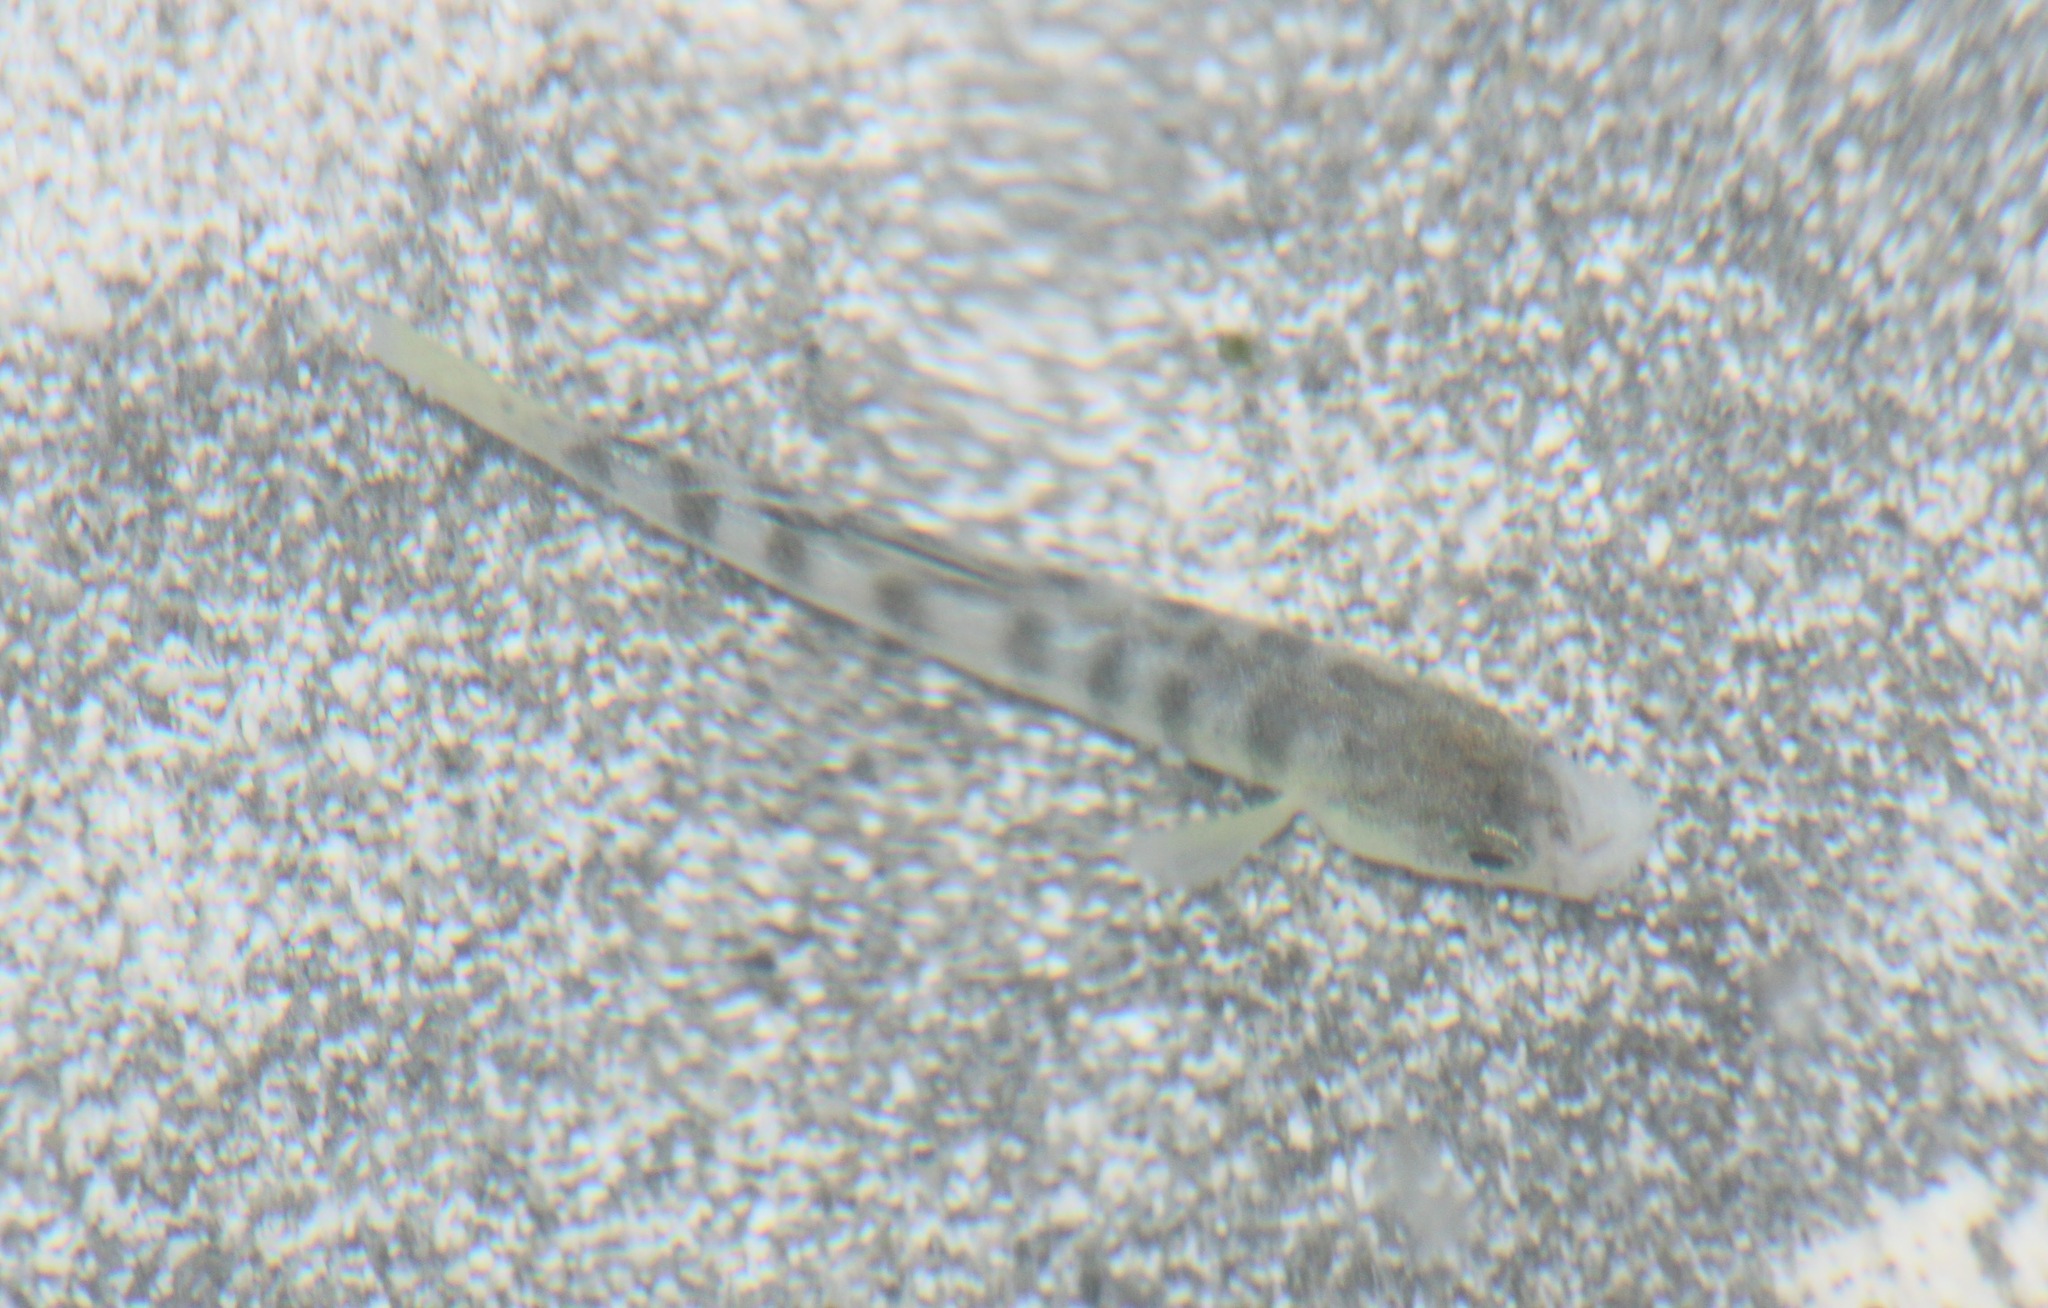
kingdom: Animalia
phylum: Chordata
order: Cyprinodontiformes
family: Aphaniidae
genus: Anatolichthys
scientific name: Anatolichthys saldae
